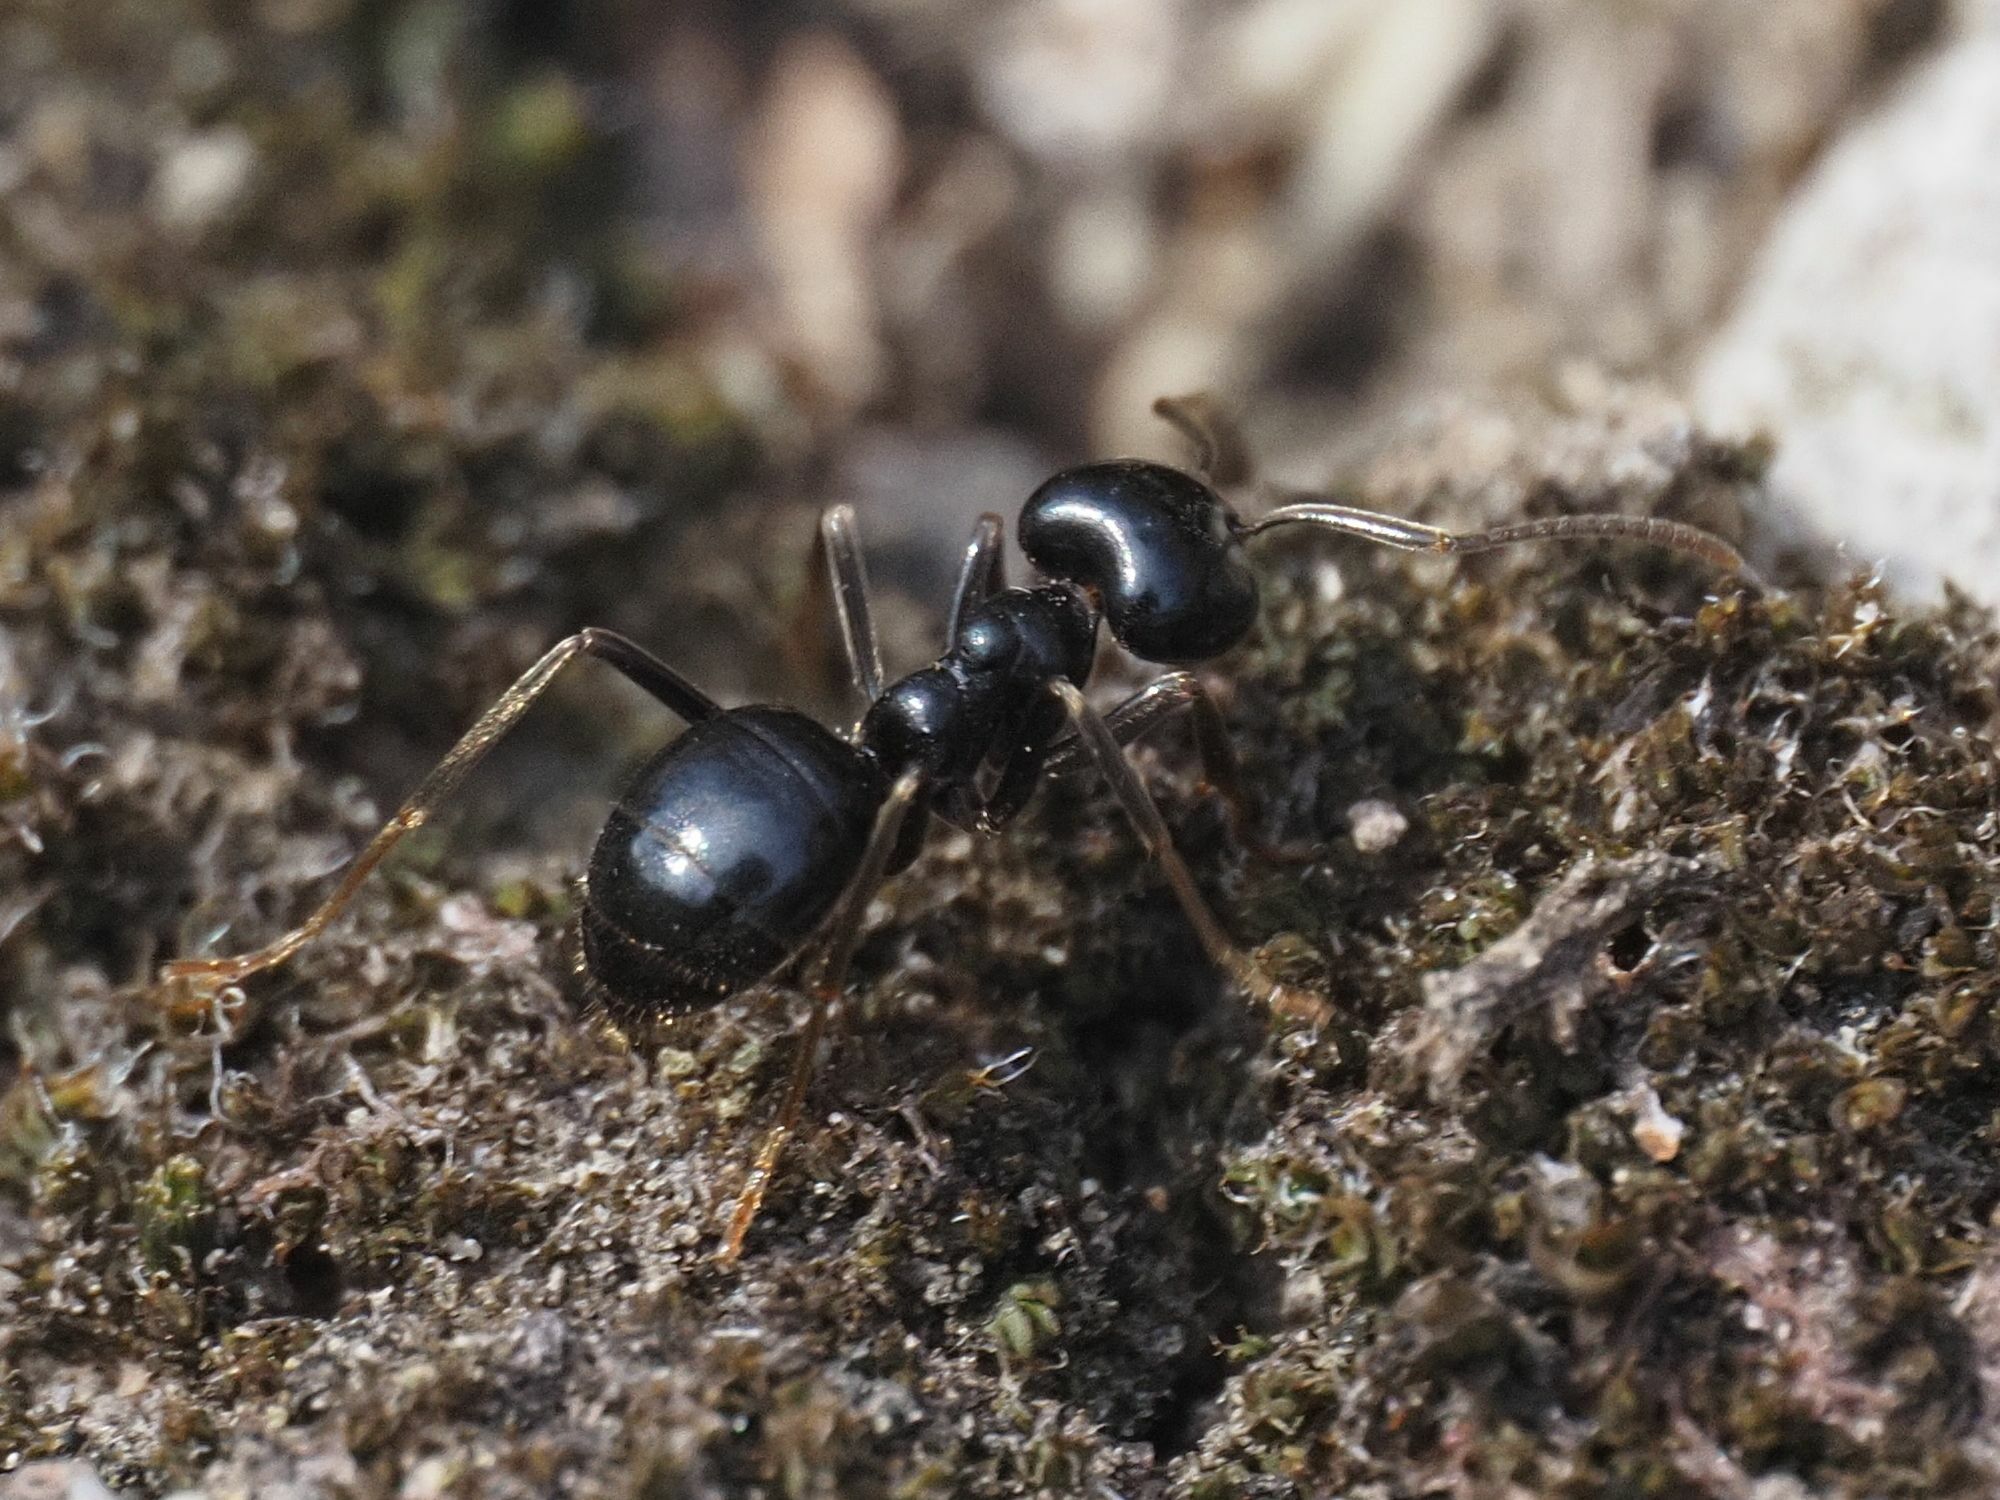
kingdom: Animalia
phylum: Arthropoda
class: Insecta
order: Hymenoptera
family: Formicidae
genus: Lasius
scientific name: Lasius fuliginosus
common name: Jet ant
